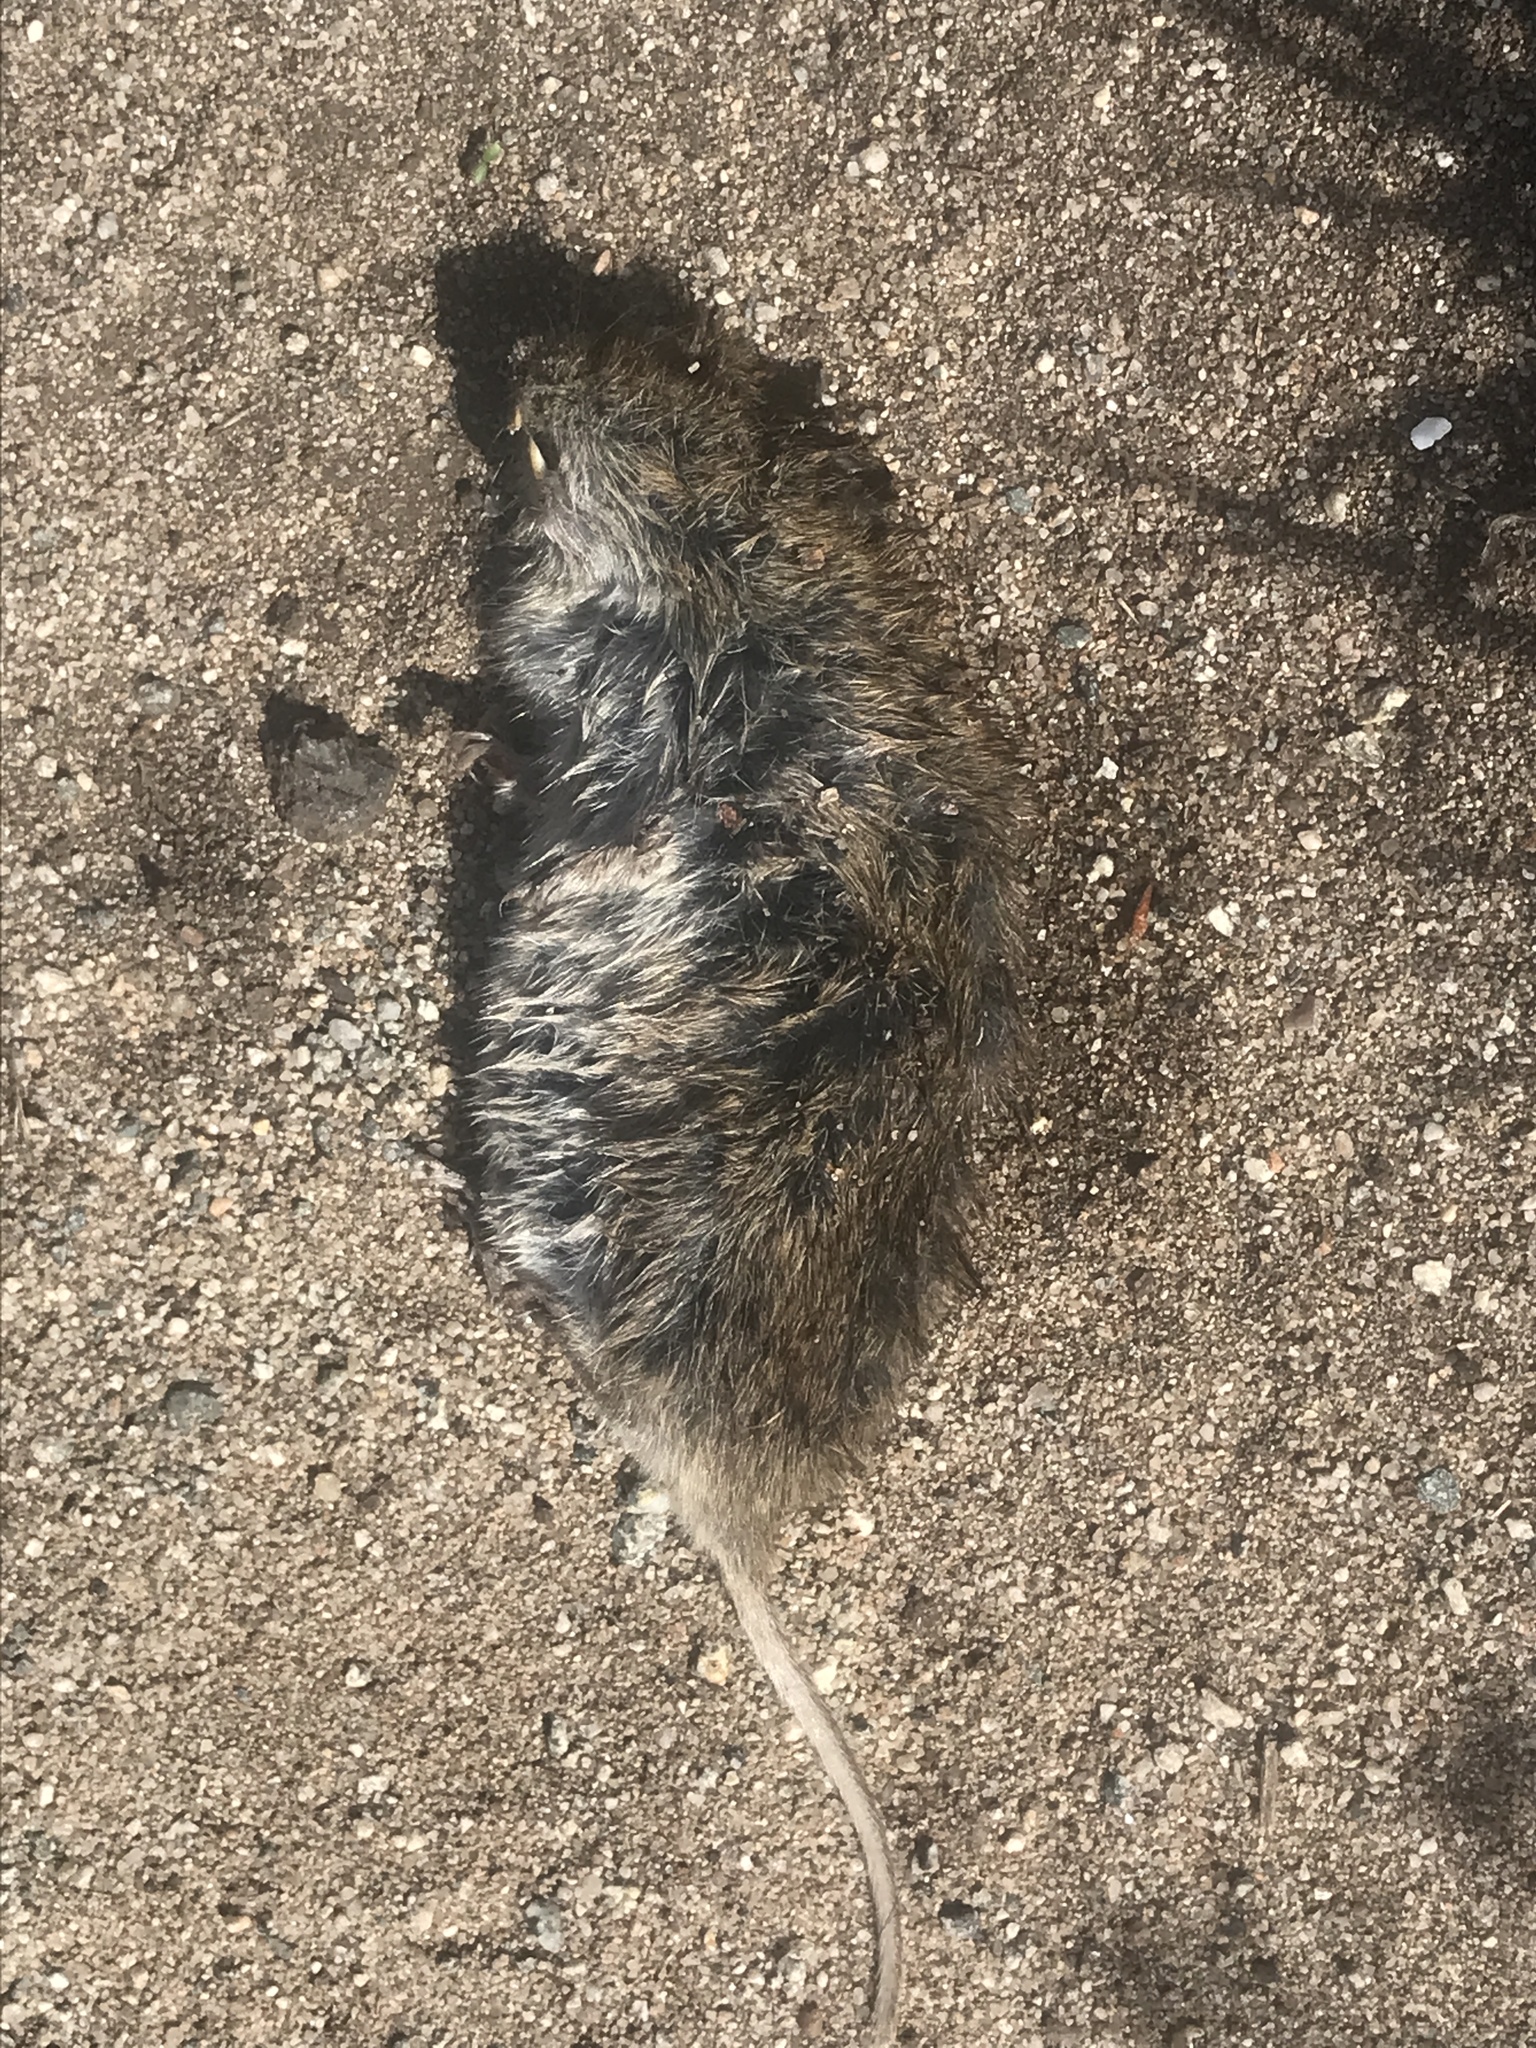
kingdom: Animalia
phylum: Chordata
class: Mammalia
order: Rodentia
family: Cricetidae
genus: Microtus
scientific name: Microtus californicus
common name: California vole
